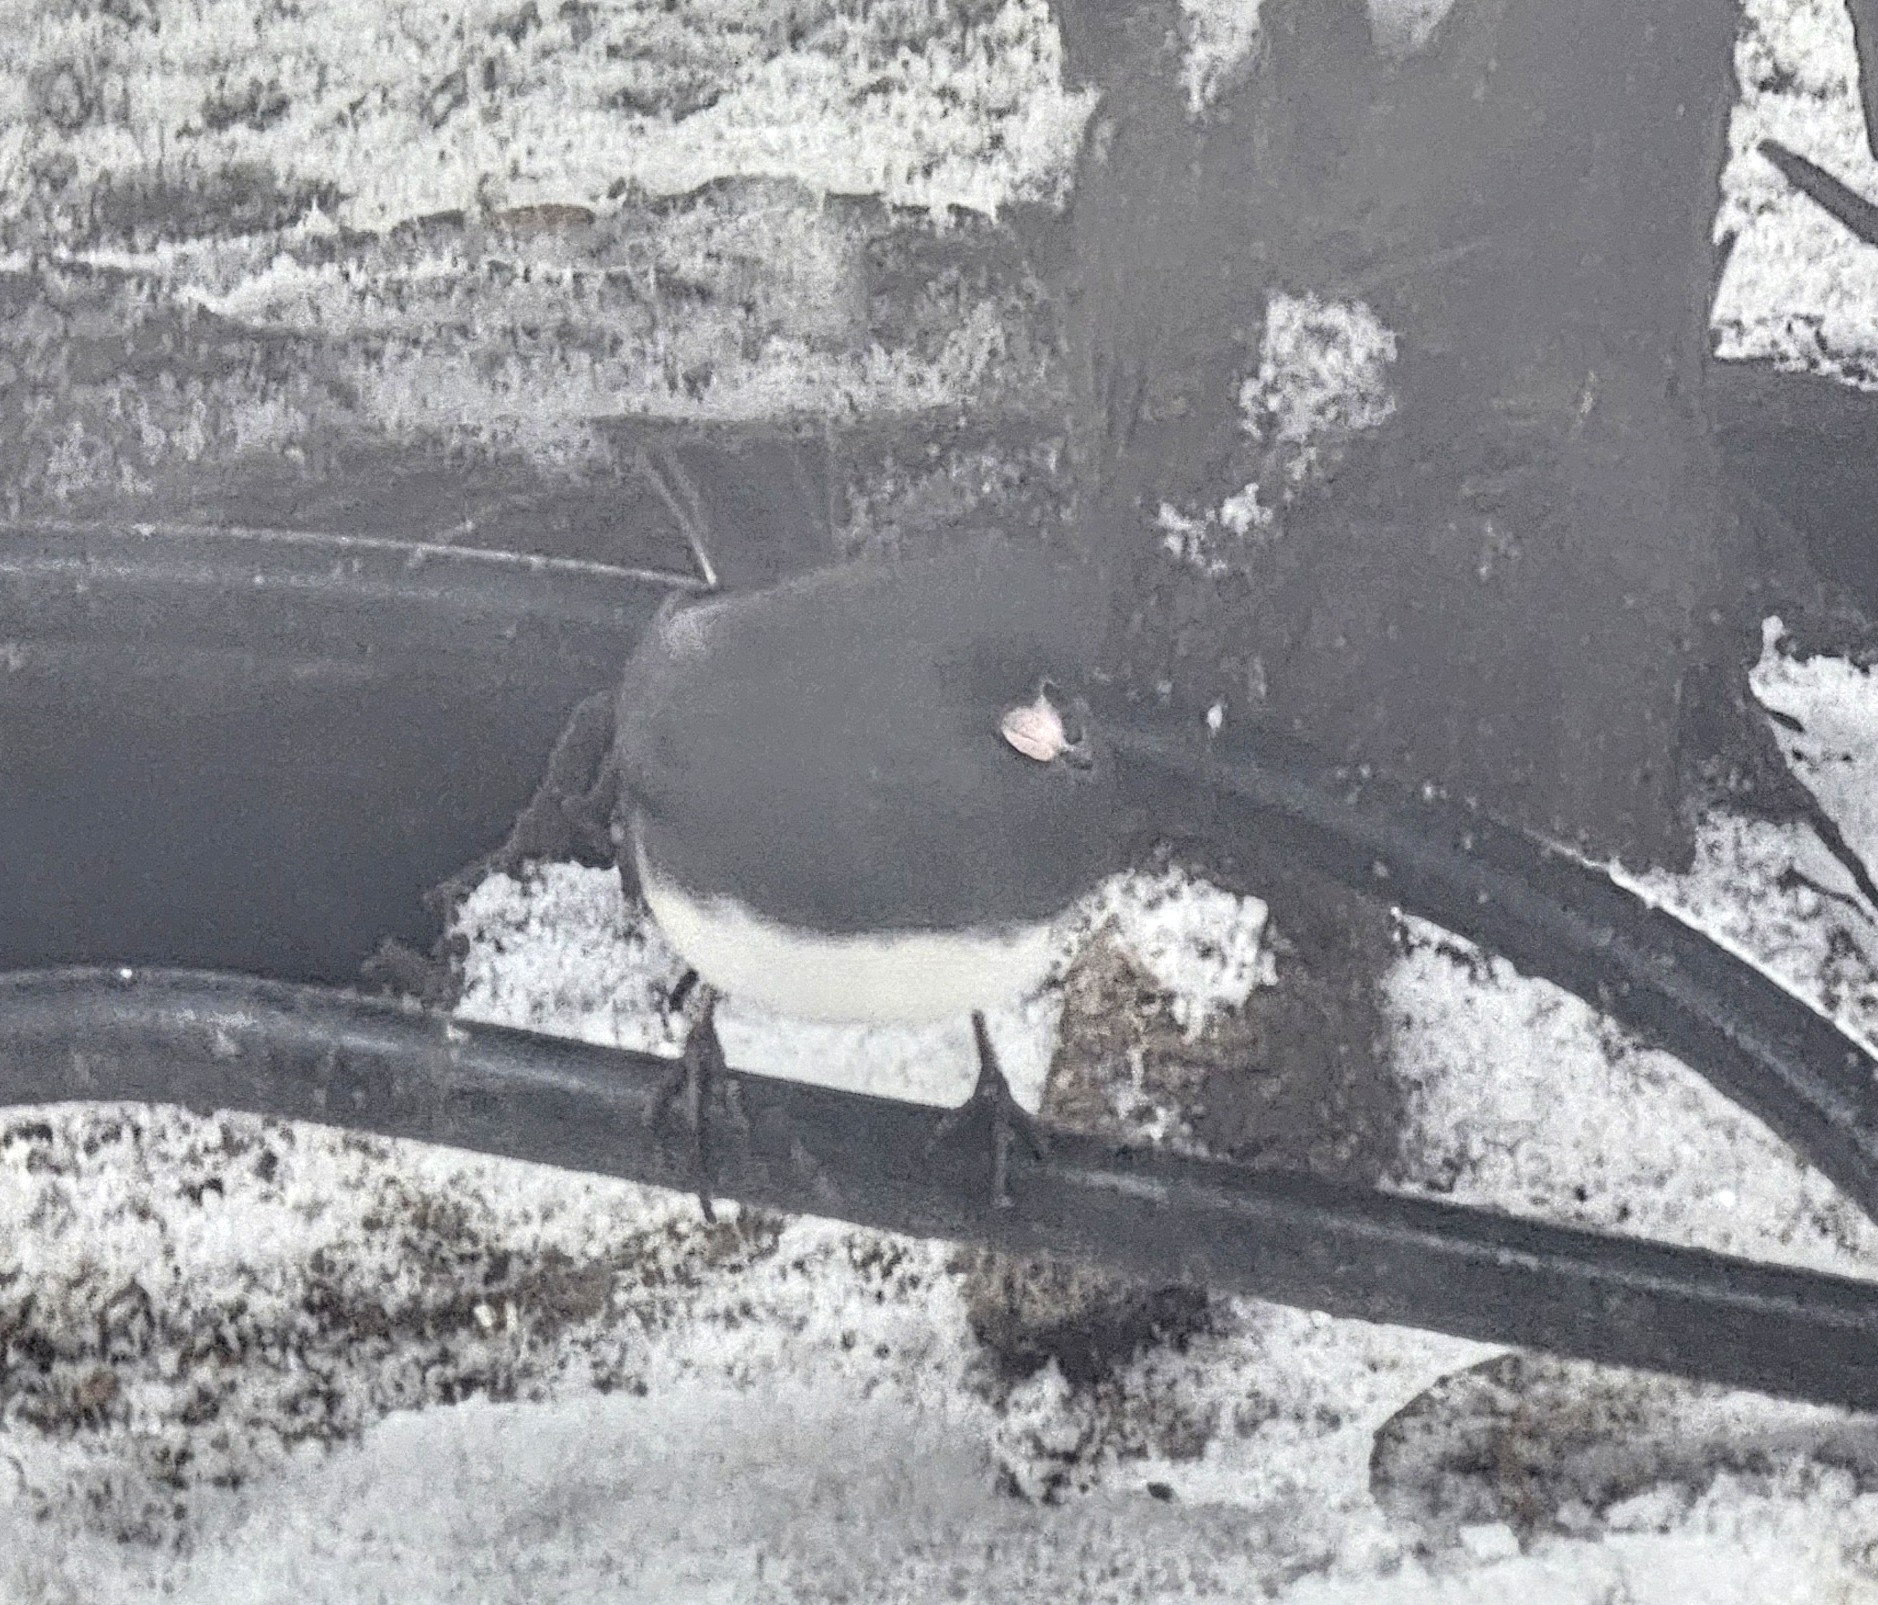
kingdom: Animalia
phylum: Chordata
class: Aves
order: Passeriformes
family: Passerellidae
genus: Junco
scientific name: Junco hyemalis
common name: Dark-eyed junco
